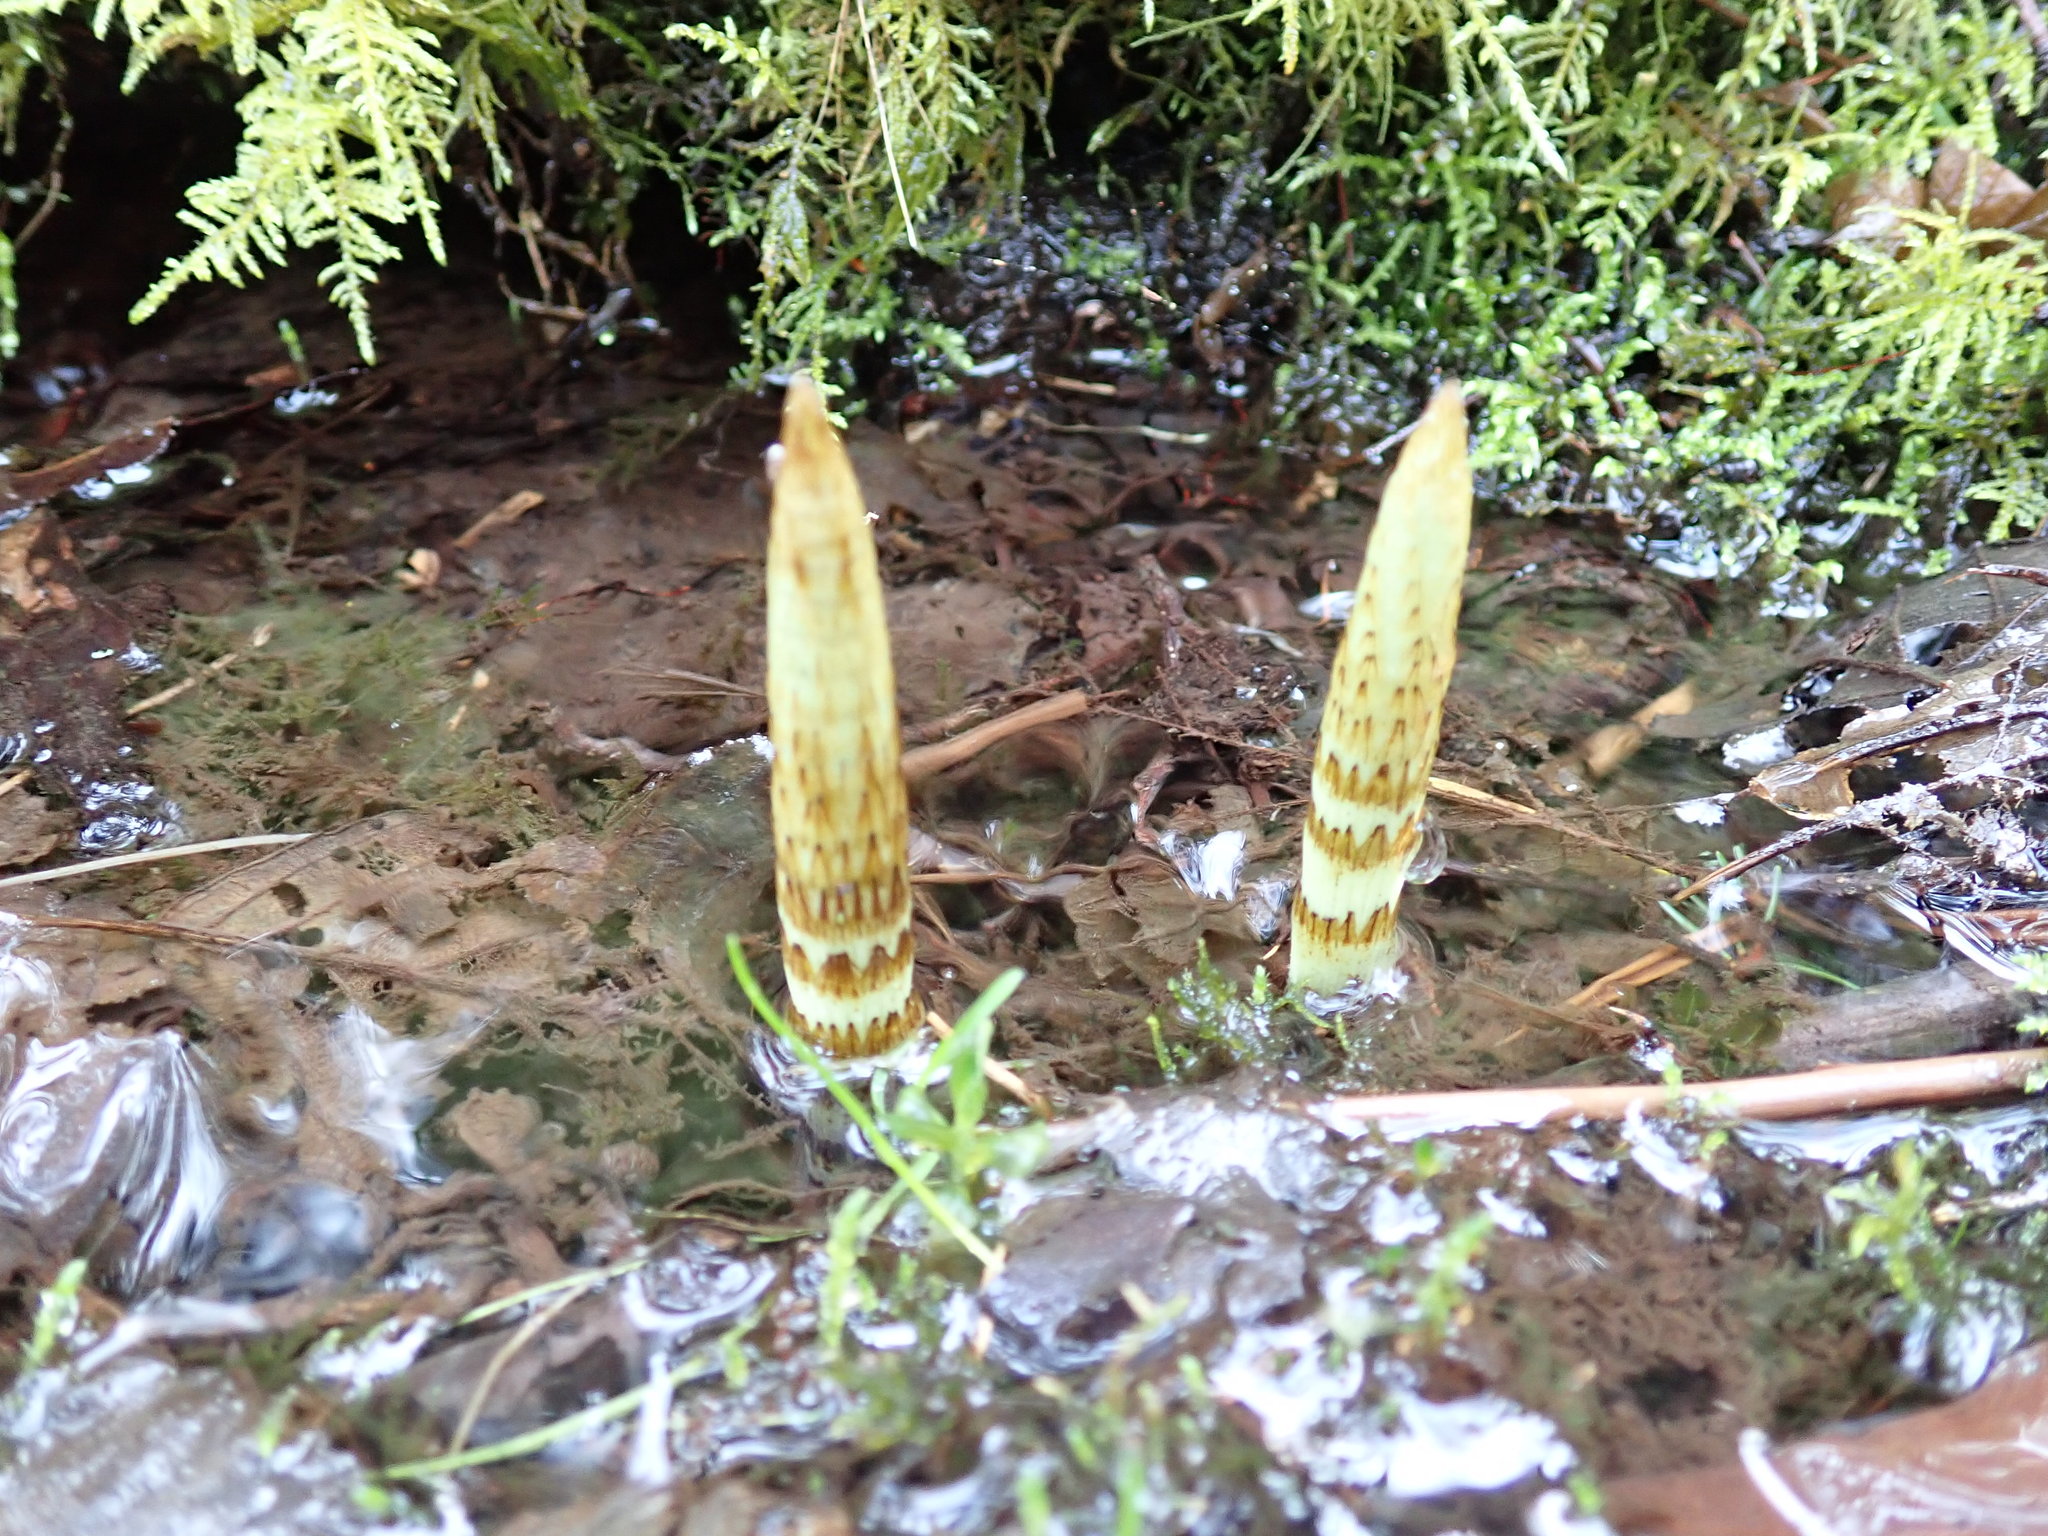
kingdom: Plantae
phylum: Tracheophyta
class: Polypodiopsida
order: Equisetales
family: Equisetaceae
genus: Equisetum
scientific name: Equisetum braunii
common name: Braun's horsetail
